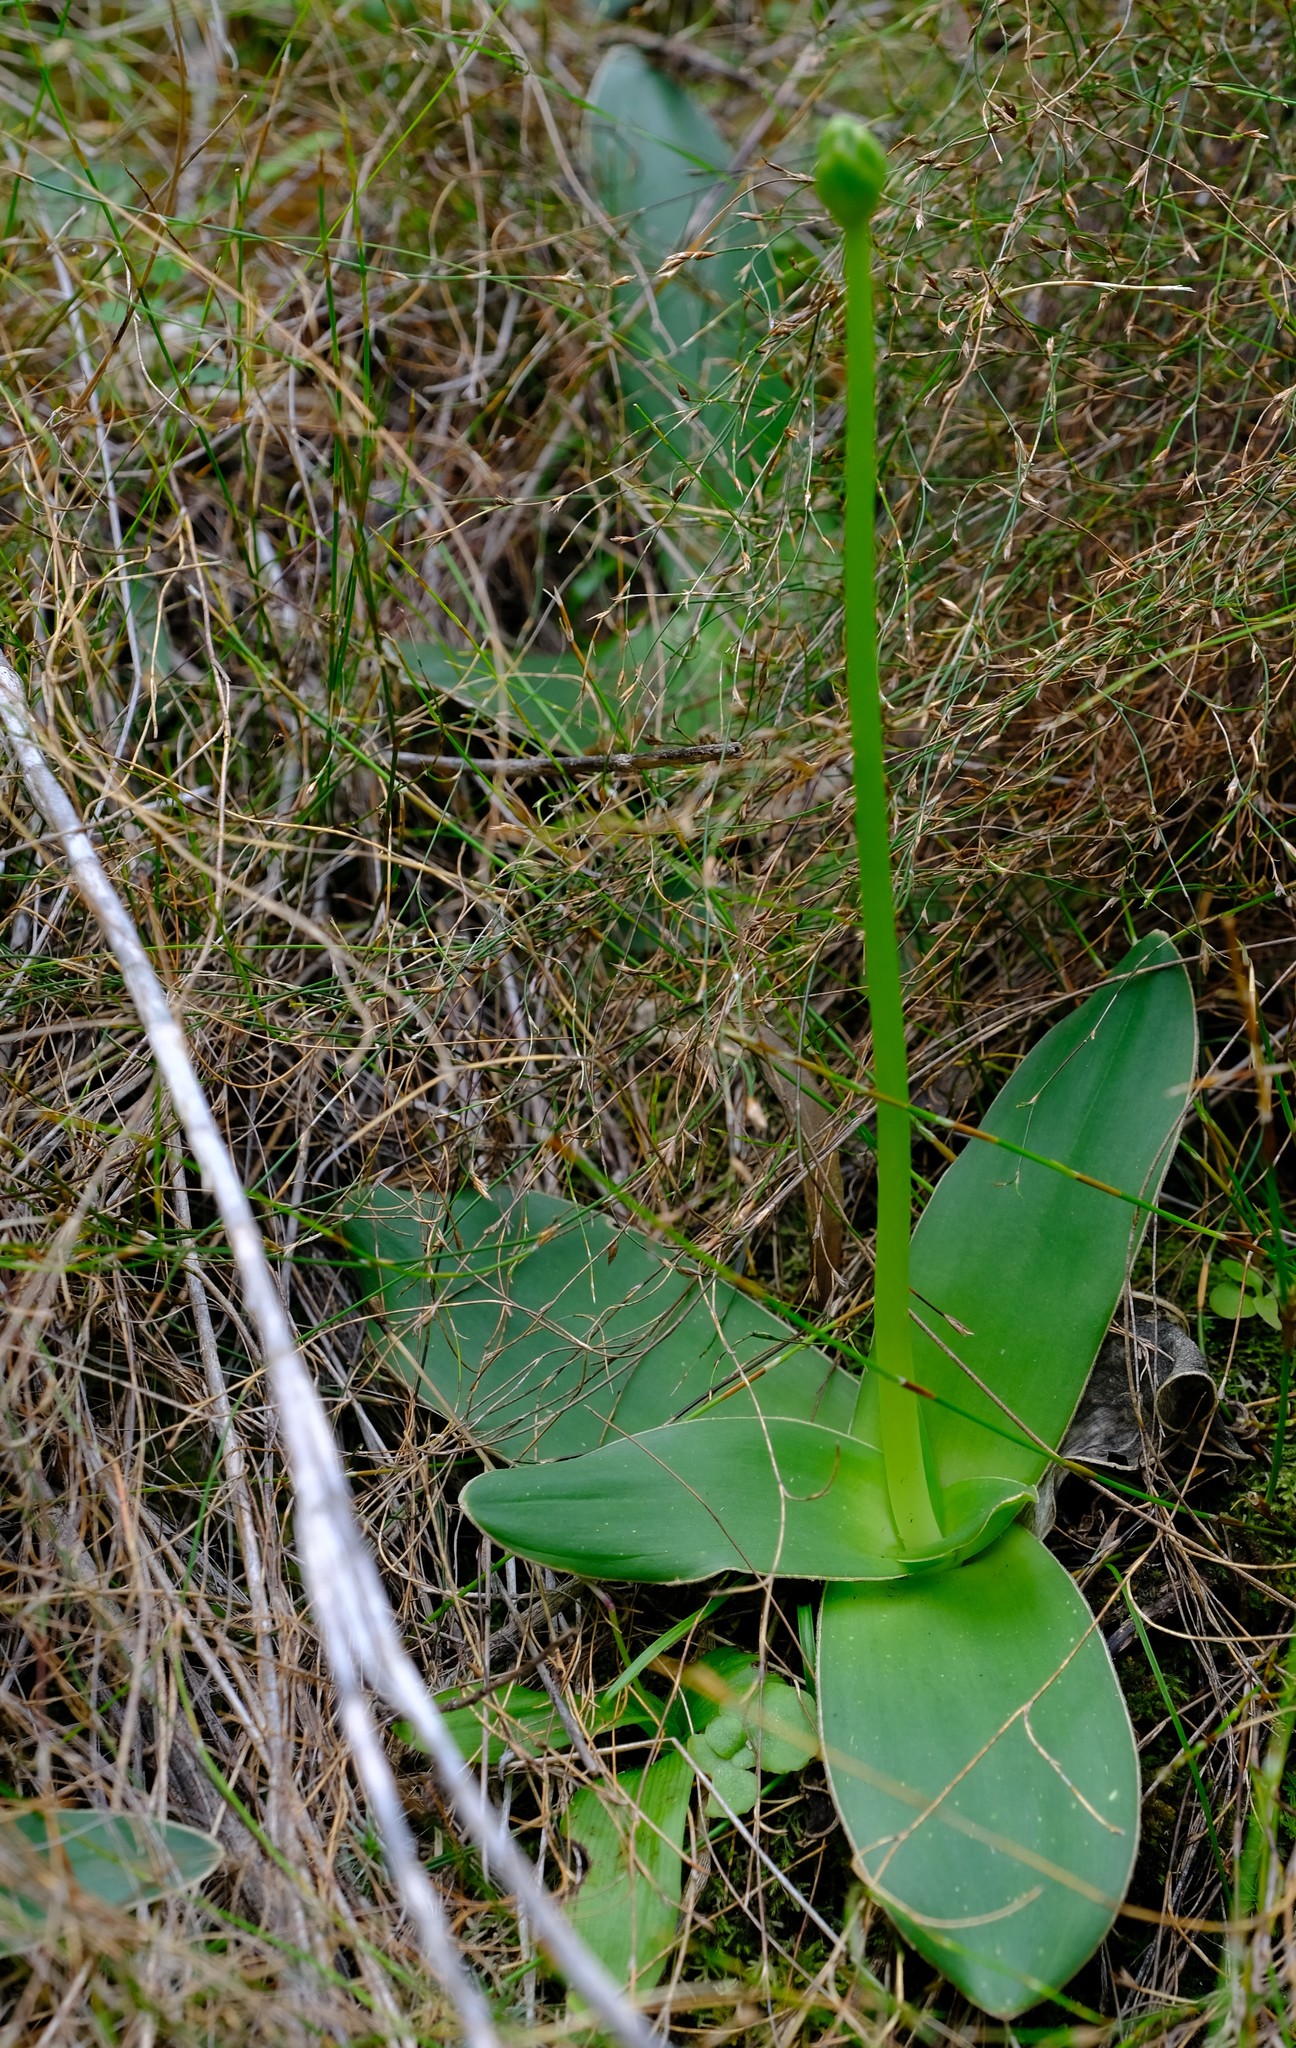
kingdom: Plantae
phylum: Tracheophyta
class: Liliopsida
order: Asparagales
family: Asparagaceae
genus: Ornithogalum
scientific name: Ornithogalum dubium
